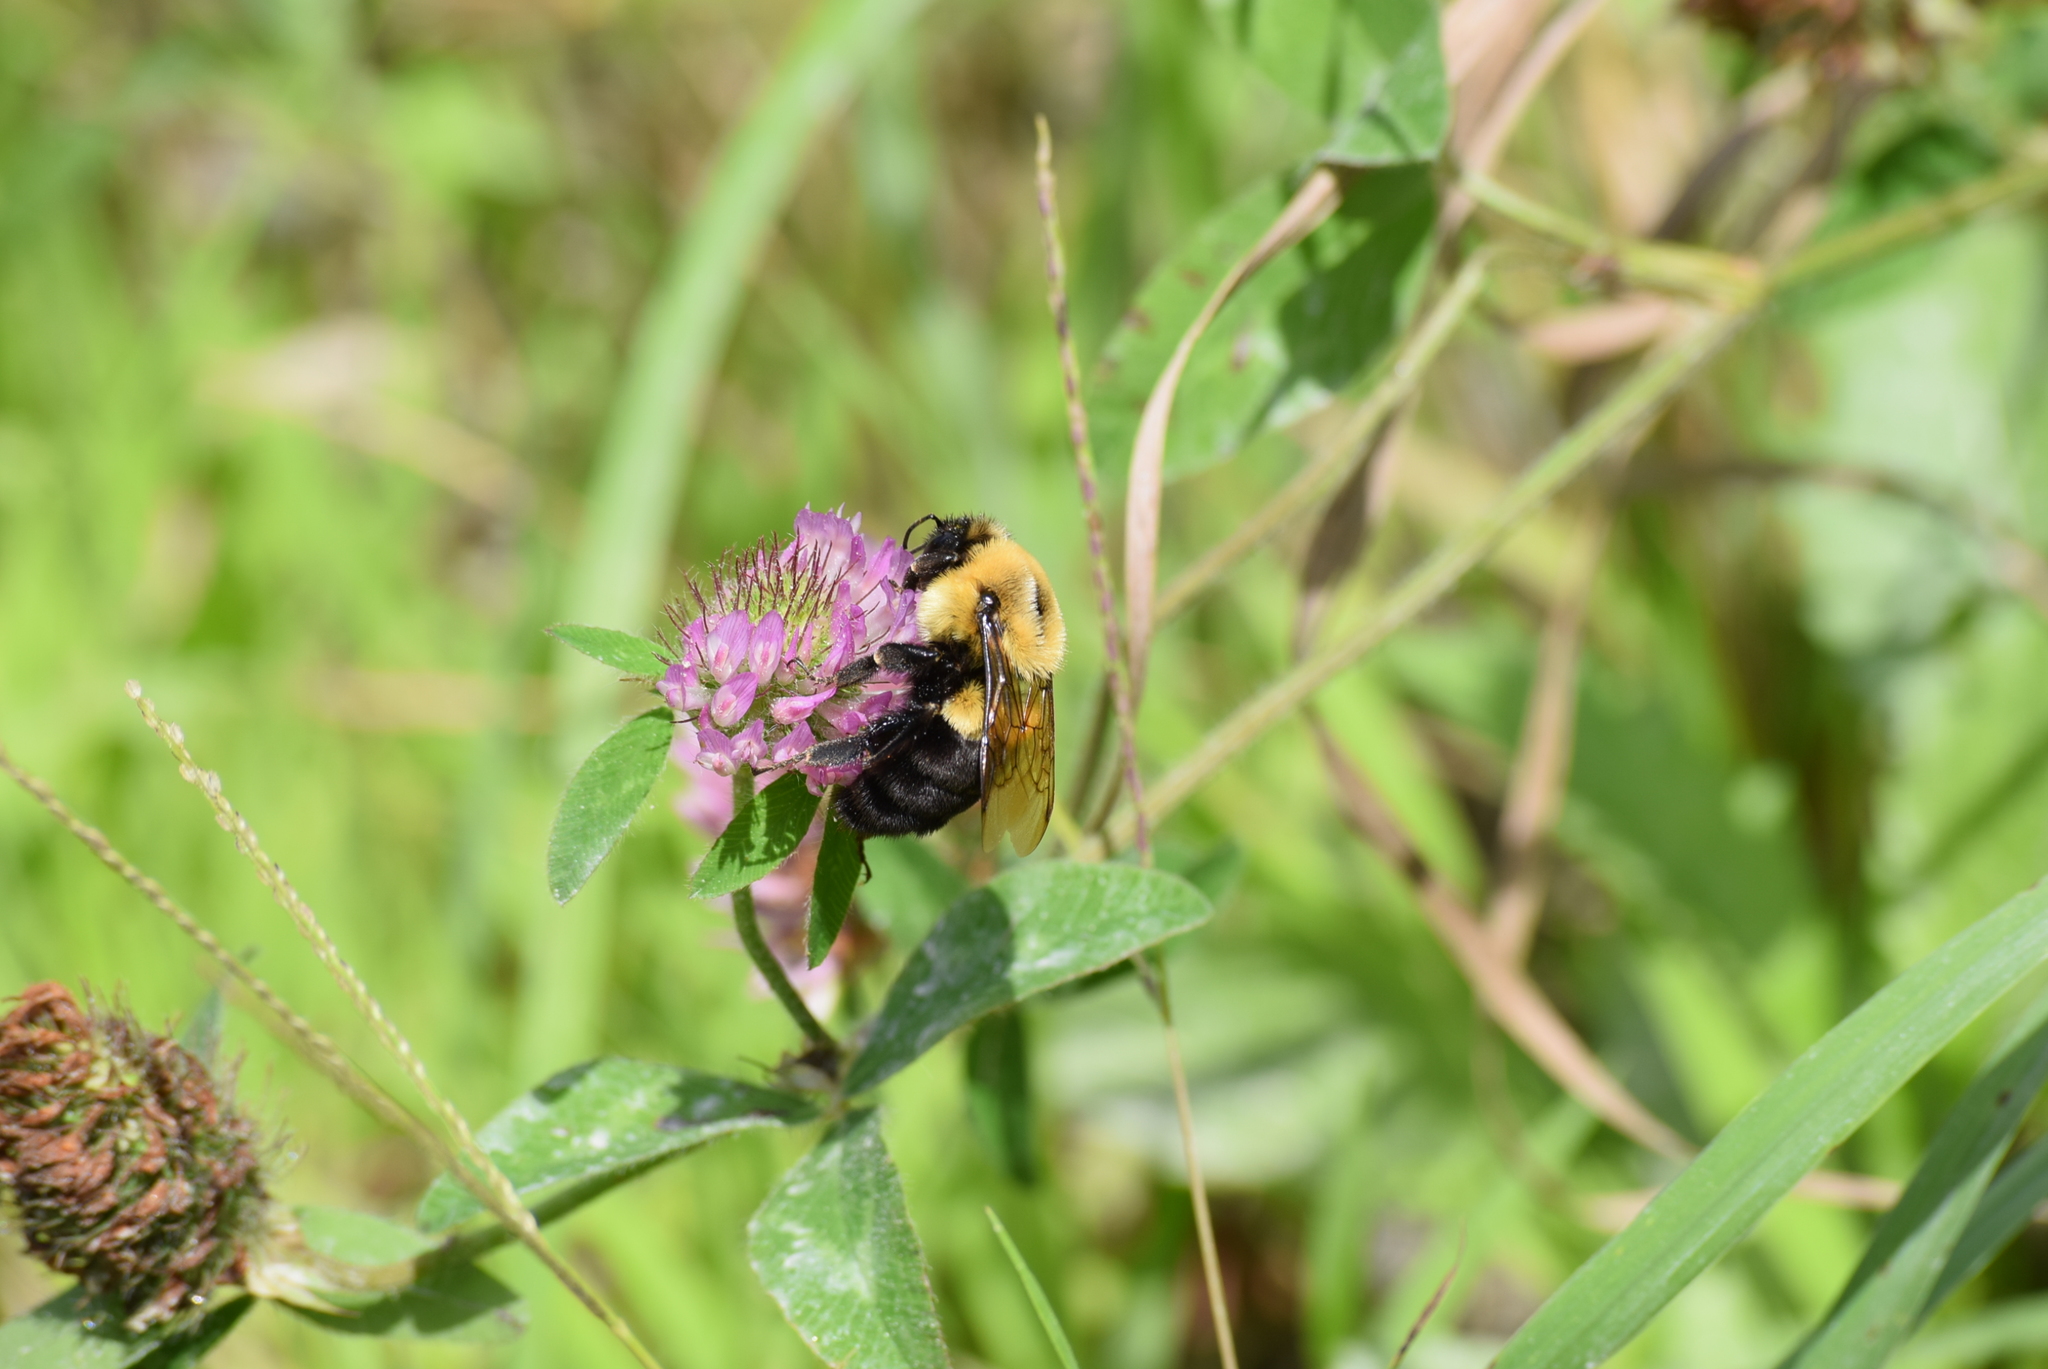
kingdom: Animalia
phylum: Arthropoda
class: Insecta
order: Hymenoptera
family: Apidae
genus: Bombus
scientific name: Bombus impatiens
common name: Common eastern bumble bee
